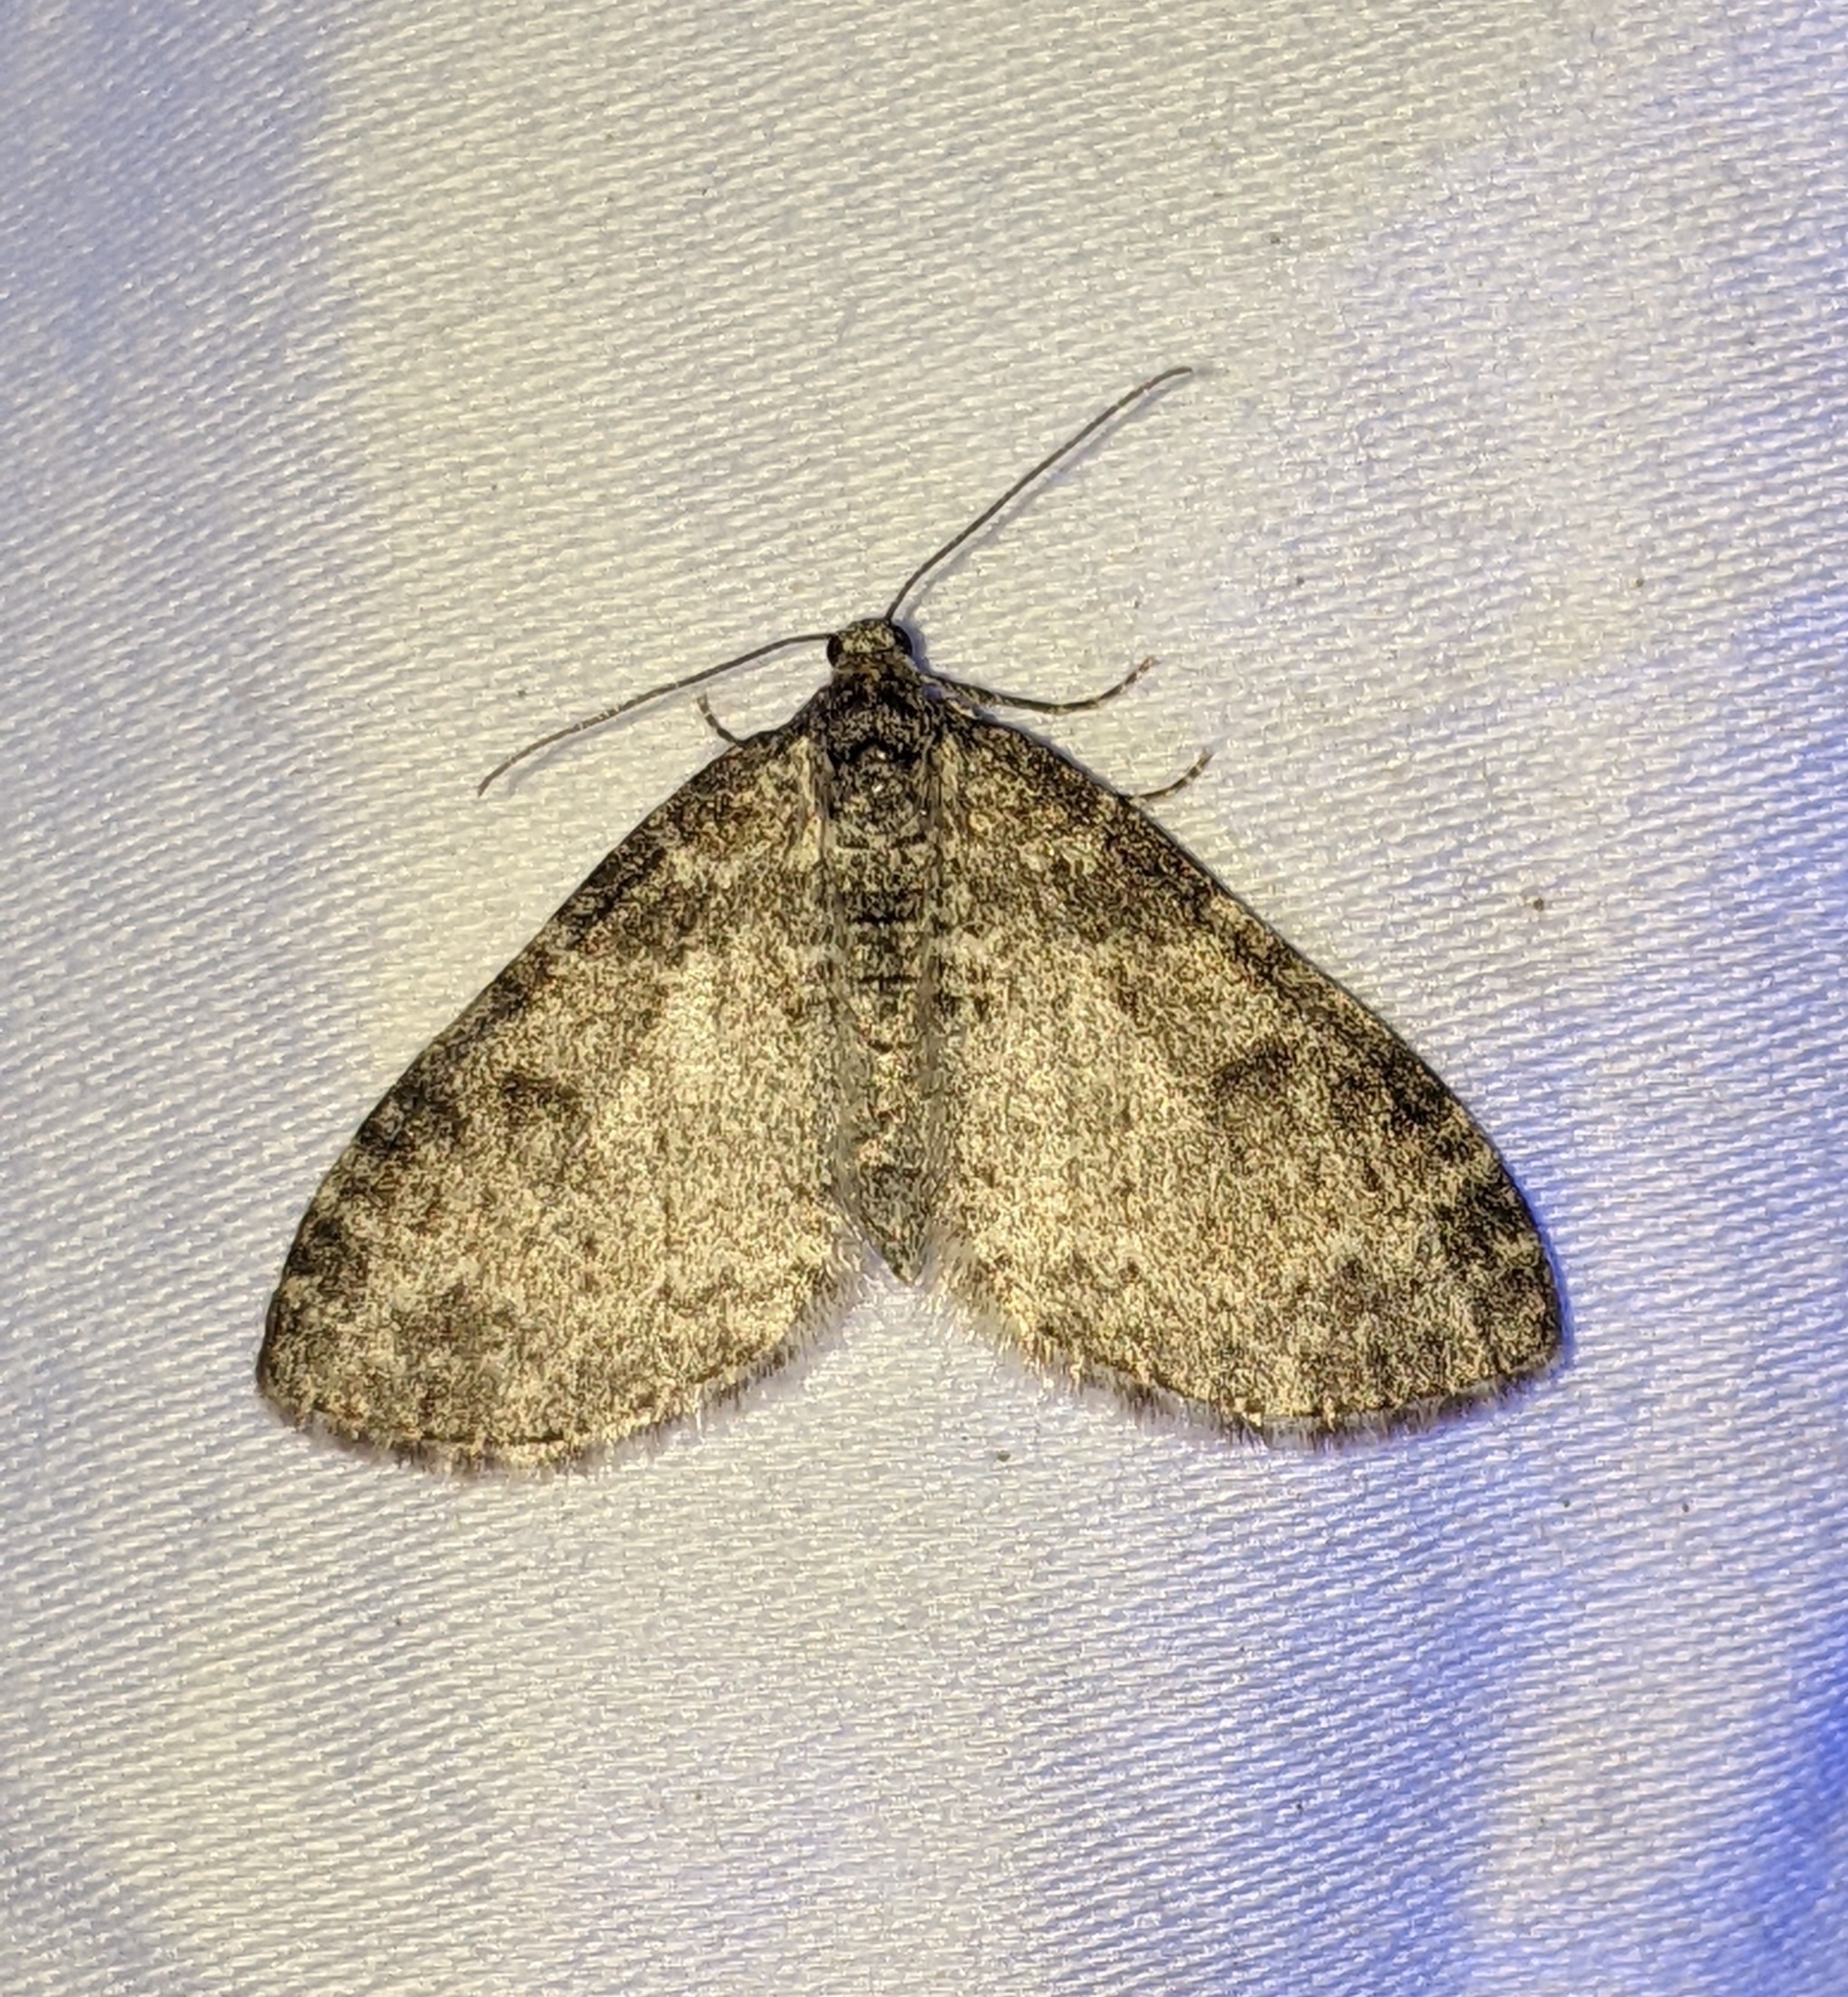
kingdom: Animalia
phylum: Arthropoda
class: Insecta
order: Lepidoptera
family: Geometridae
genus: Lobophora
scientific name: Lobophora nivigerata
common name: Powdered bigwing
